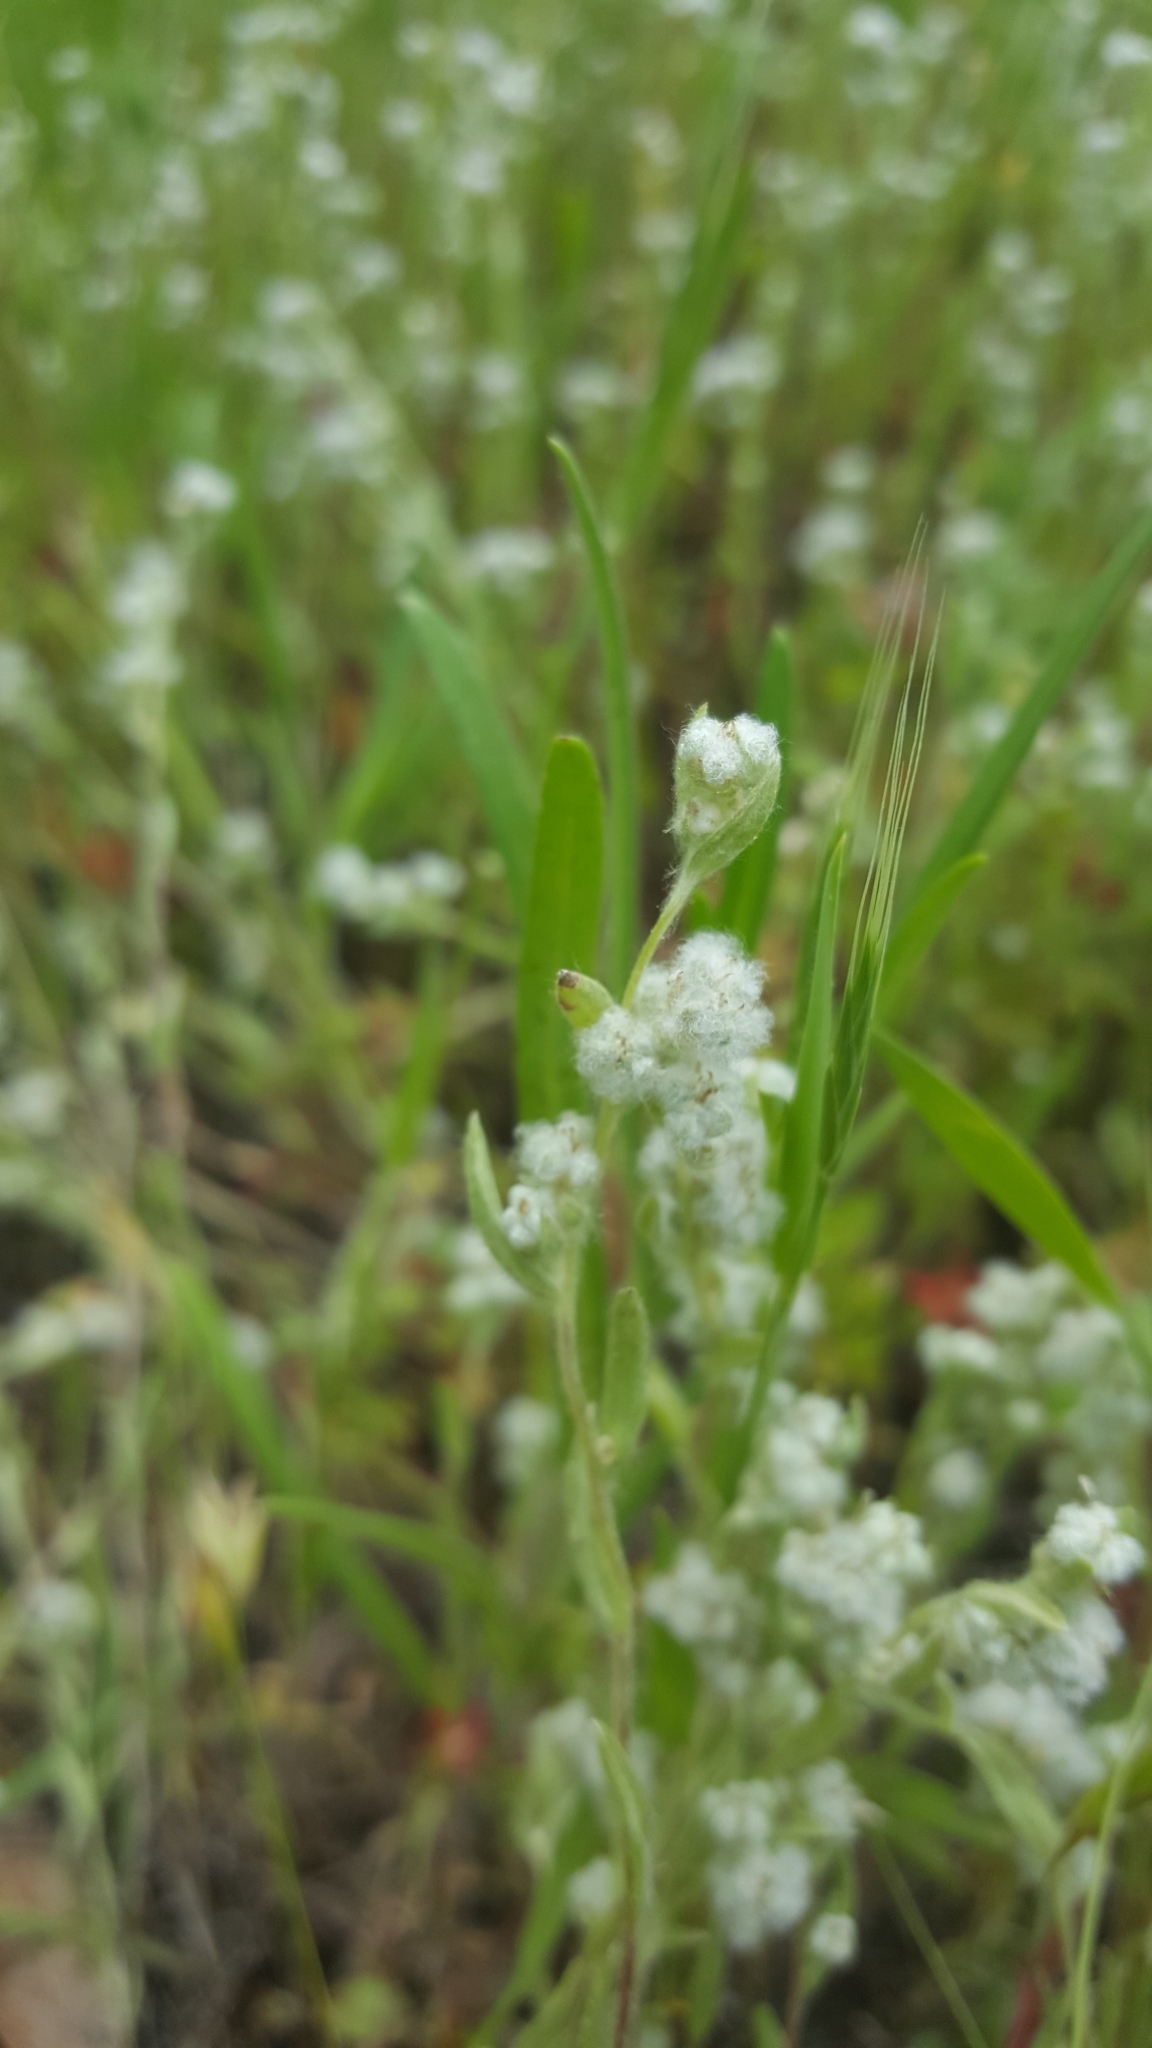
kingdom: Plantae
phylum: Tracheophyta
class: Magnoliopsida
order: Asterales
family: Asteraceae
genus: Bombycilaena
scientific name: Bombycilaena californica
